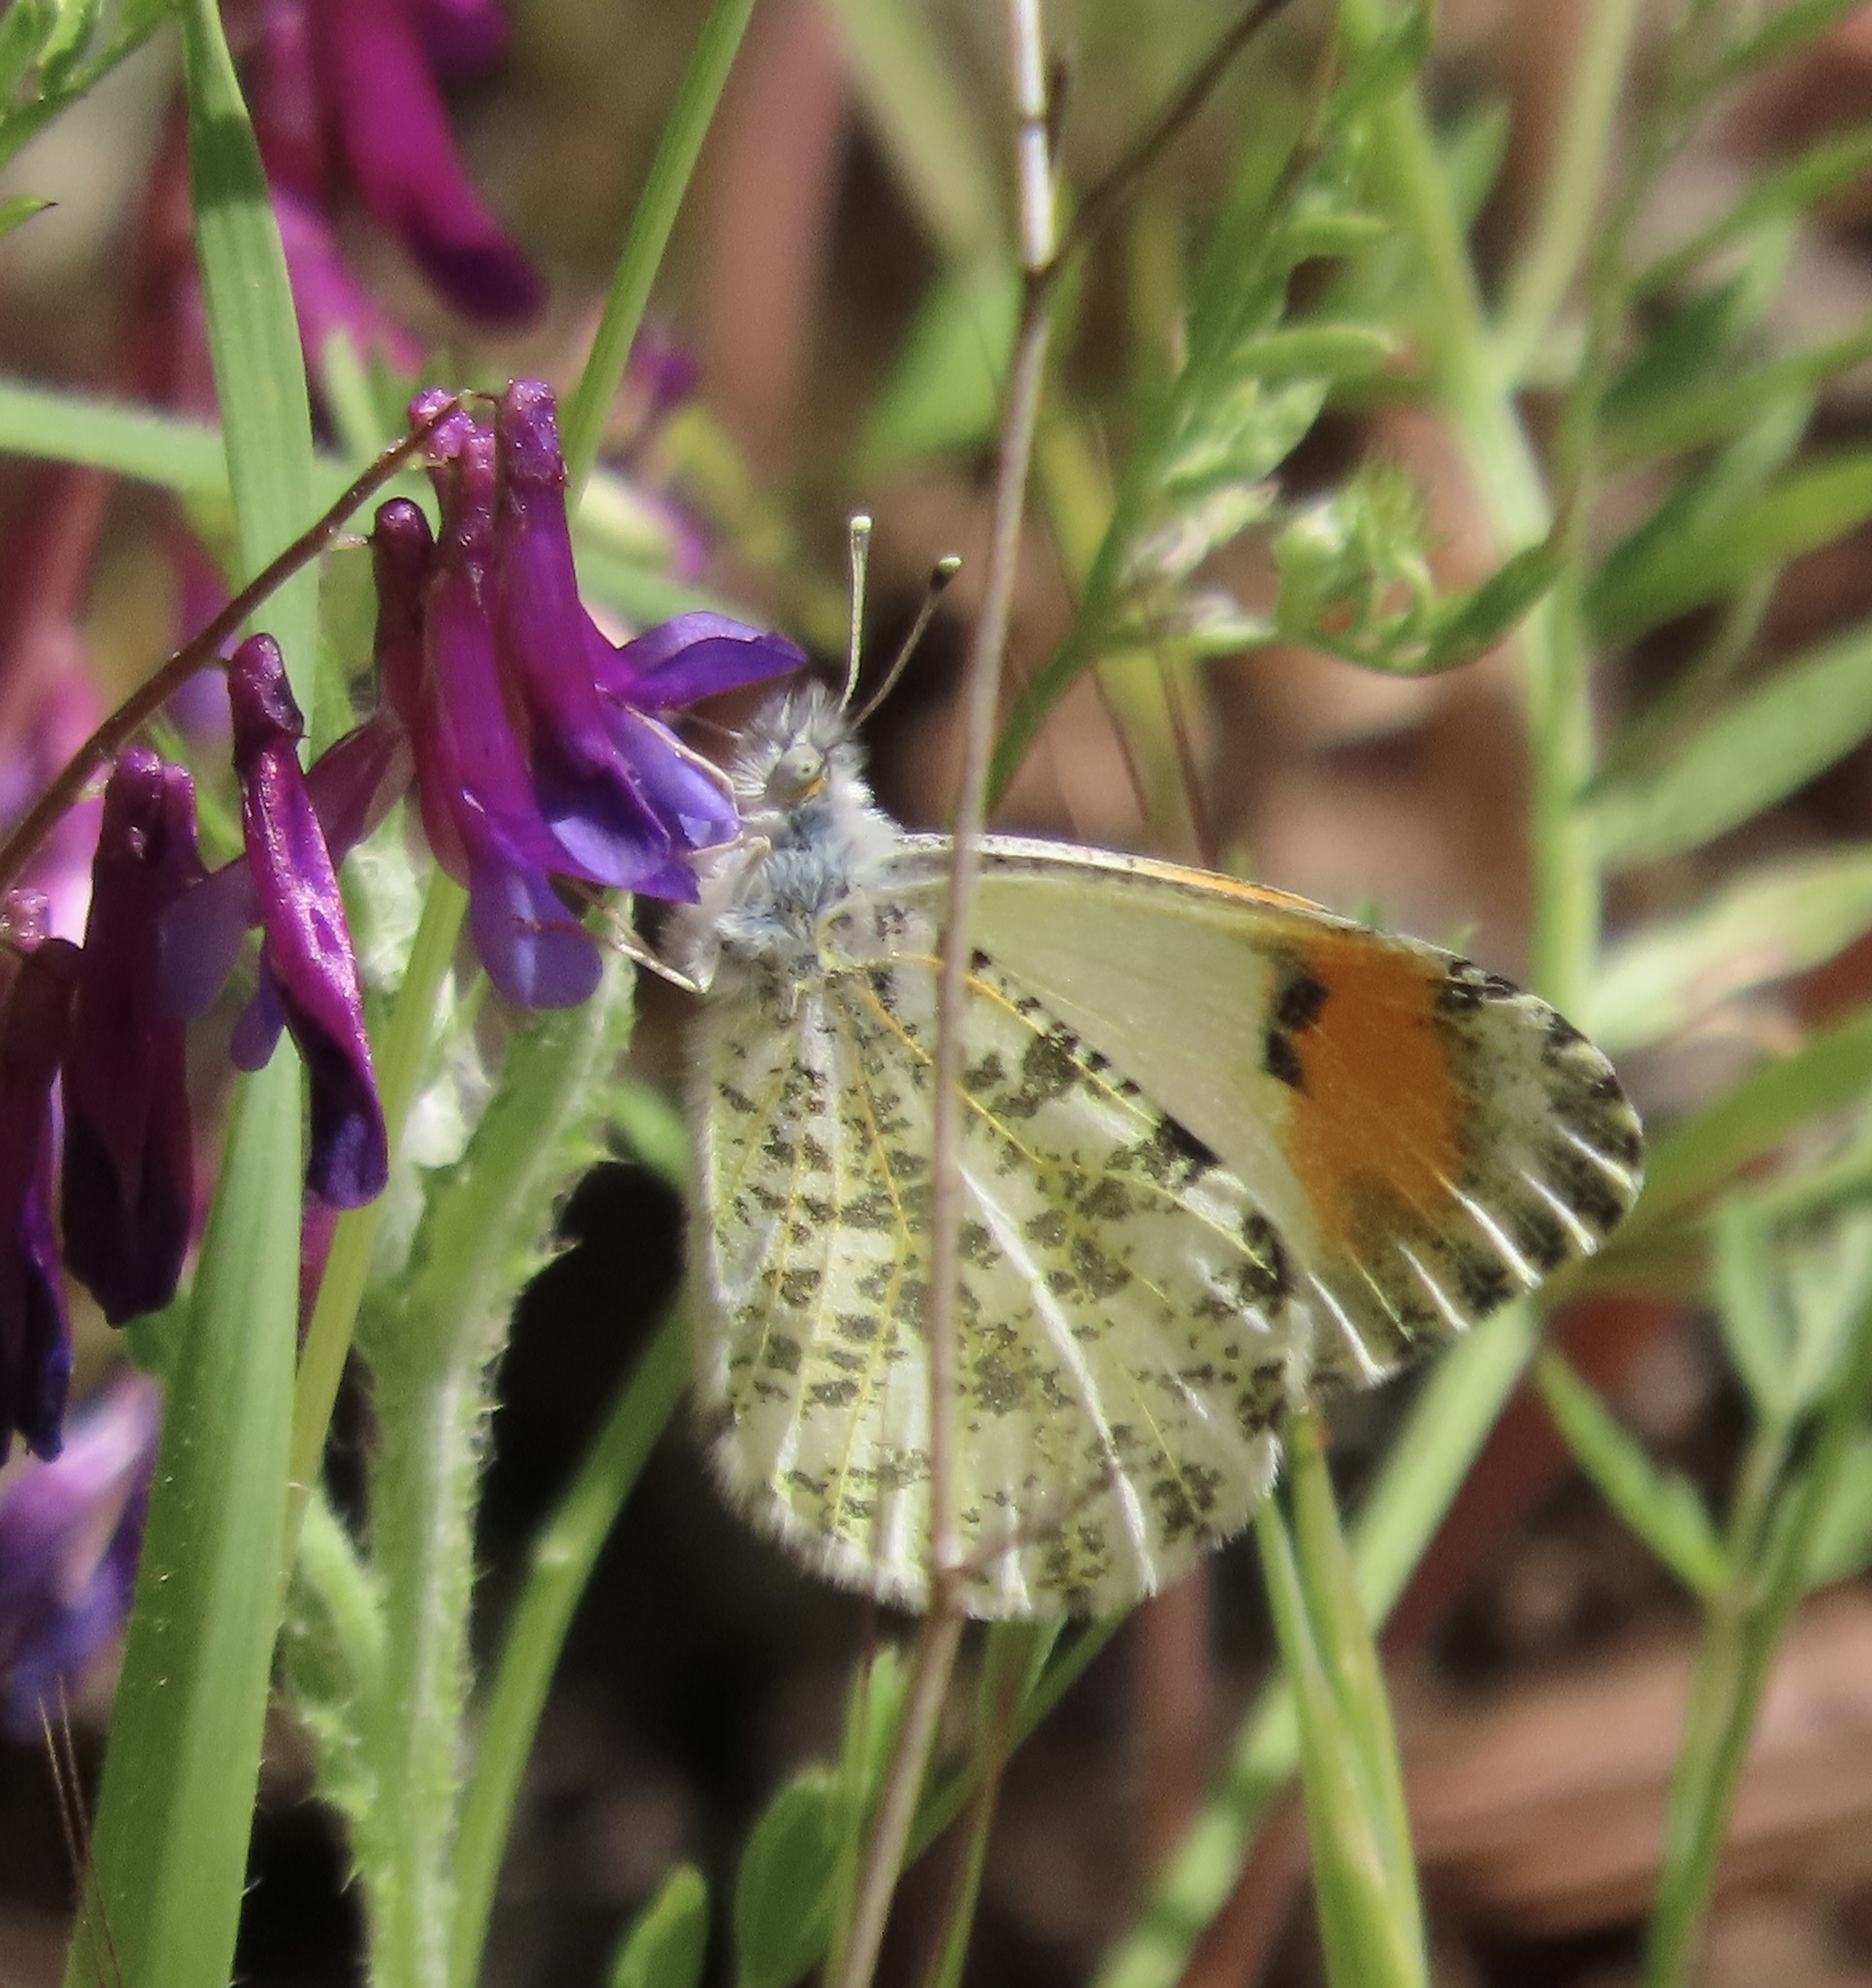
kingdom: Animalia
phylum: Arthropoda
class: Insecta
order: Lepidoptera
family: Pieridae
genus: Anthocharis
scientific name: Anthocharis sara
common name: Sara's orangetip
